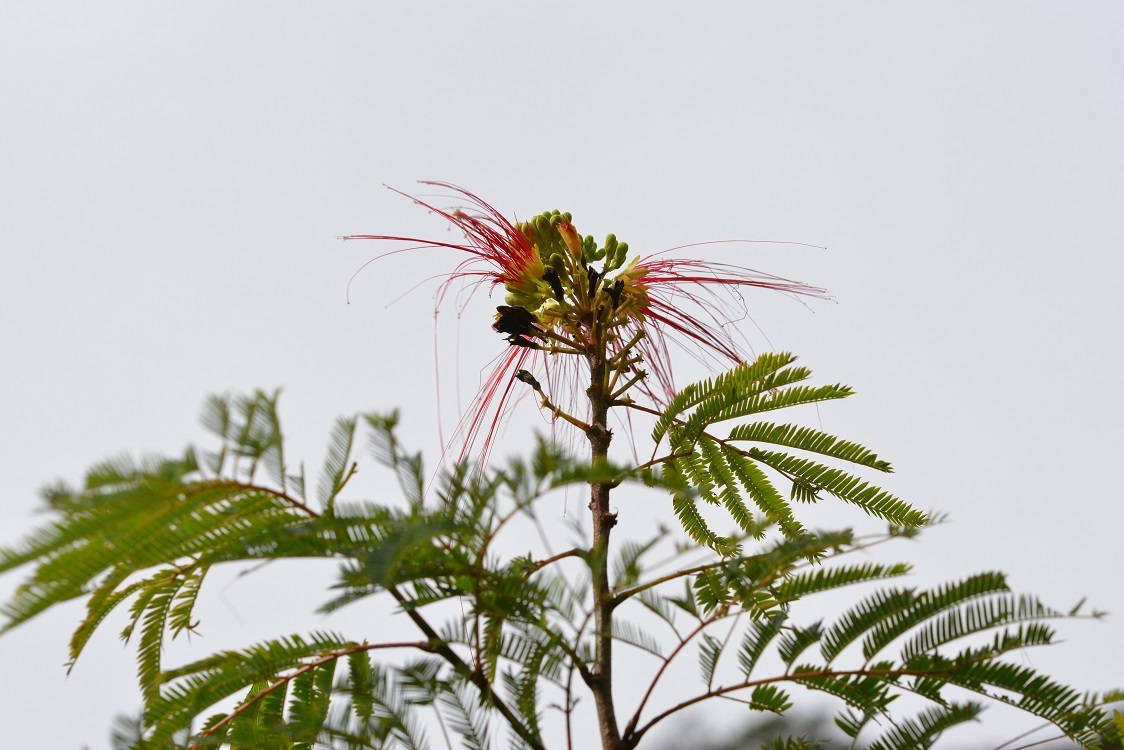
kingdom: Plantae
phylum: Tracheophyta
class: Magnoliopsida
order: Fabales
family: Fabaceae
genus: Calliandra
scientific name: Calliandra houstoniana
